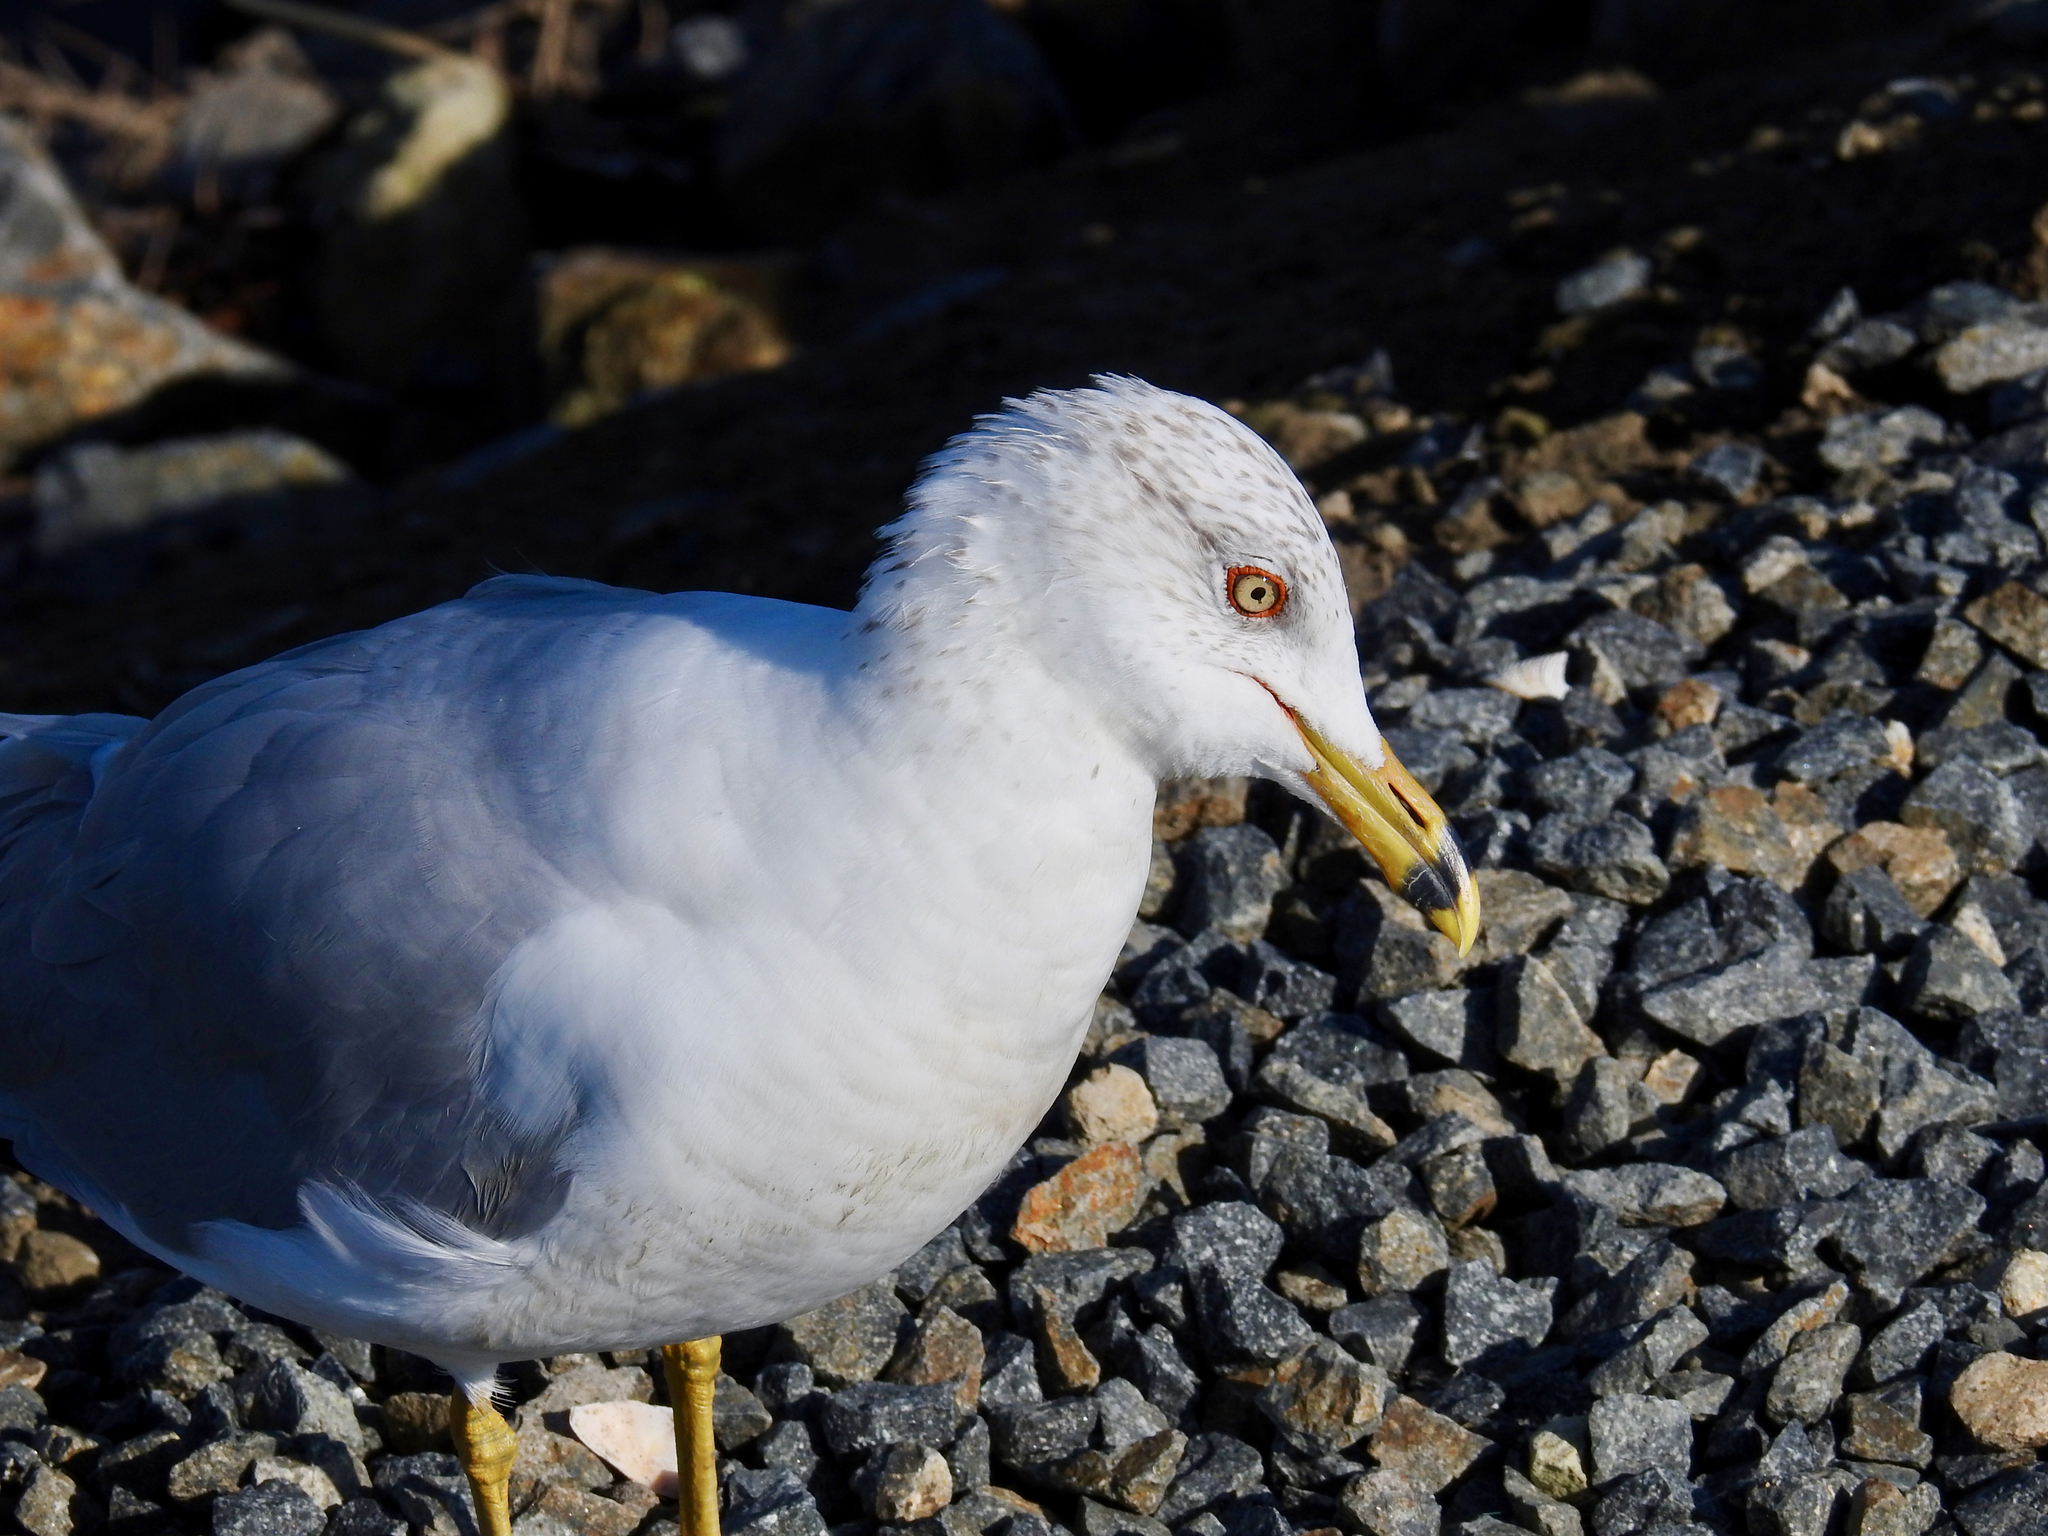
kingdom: Animalia
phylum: Chordata
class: Aves
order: Charadriiformes
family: Laridae
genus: Larus
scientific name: Larus delawarensis
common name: Ring-billed gull
